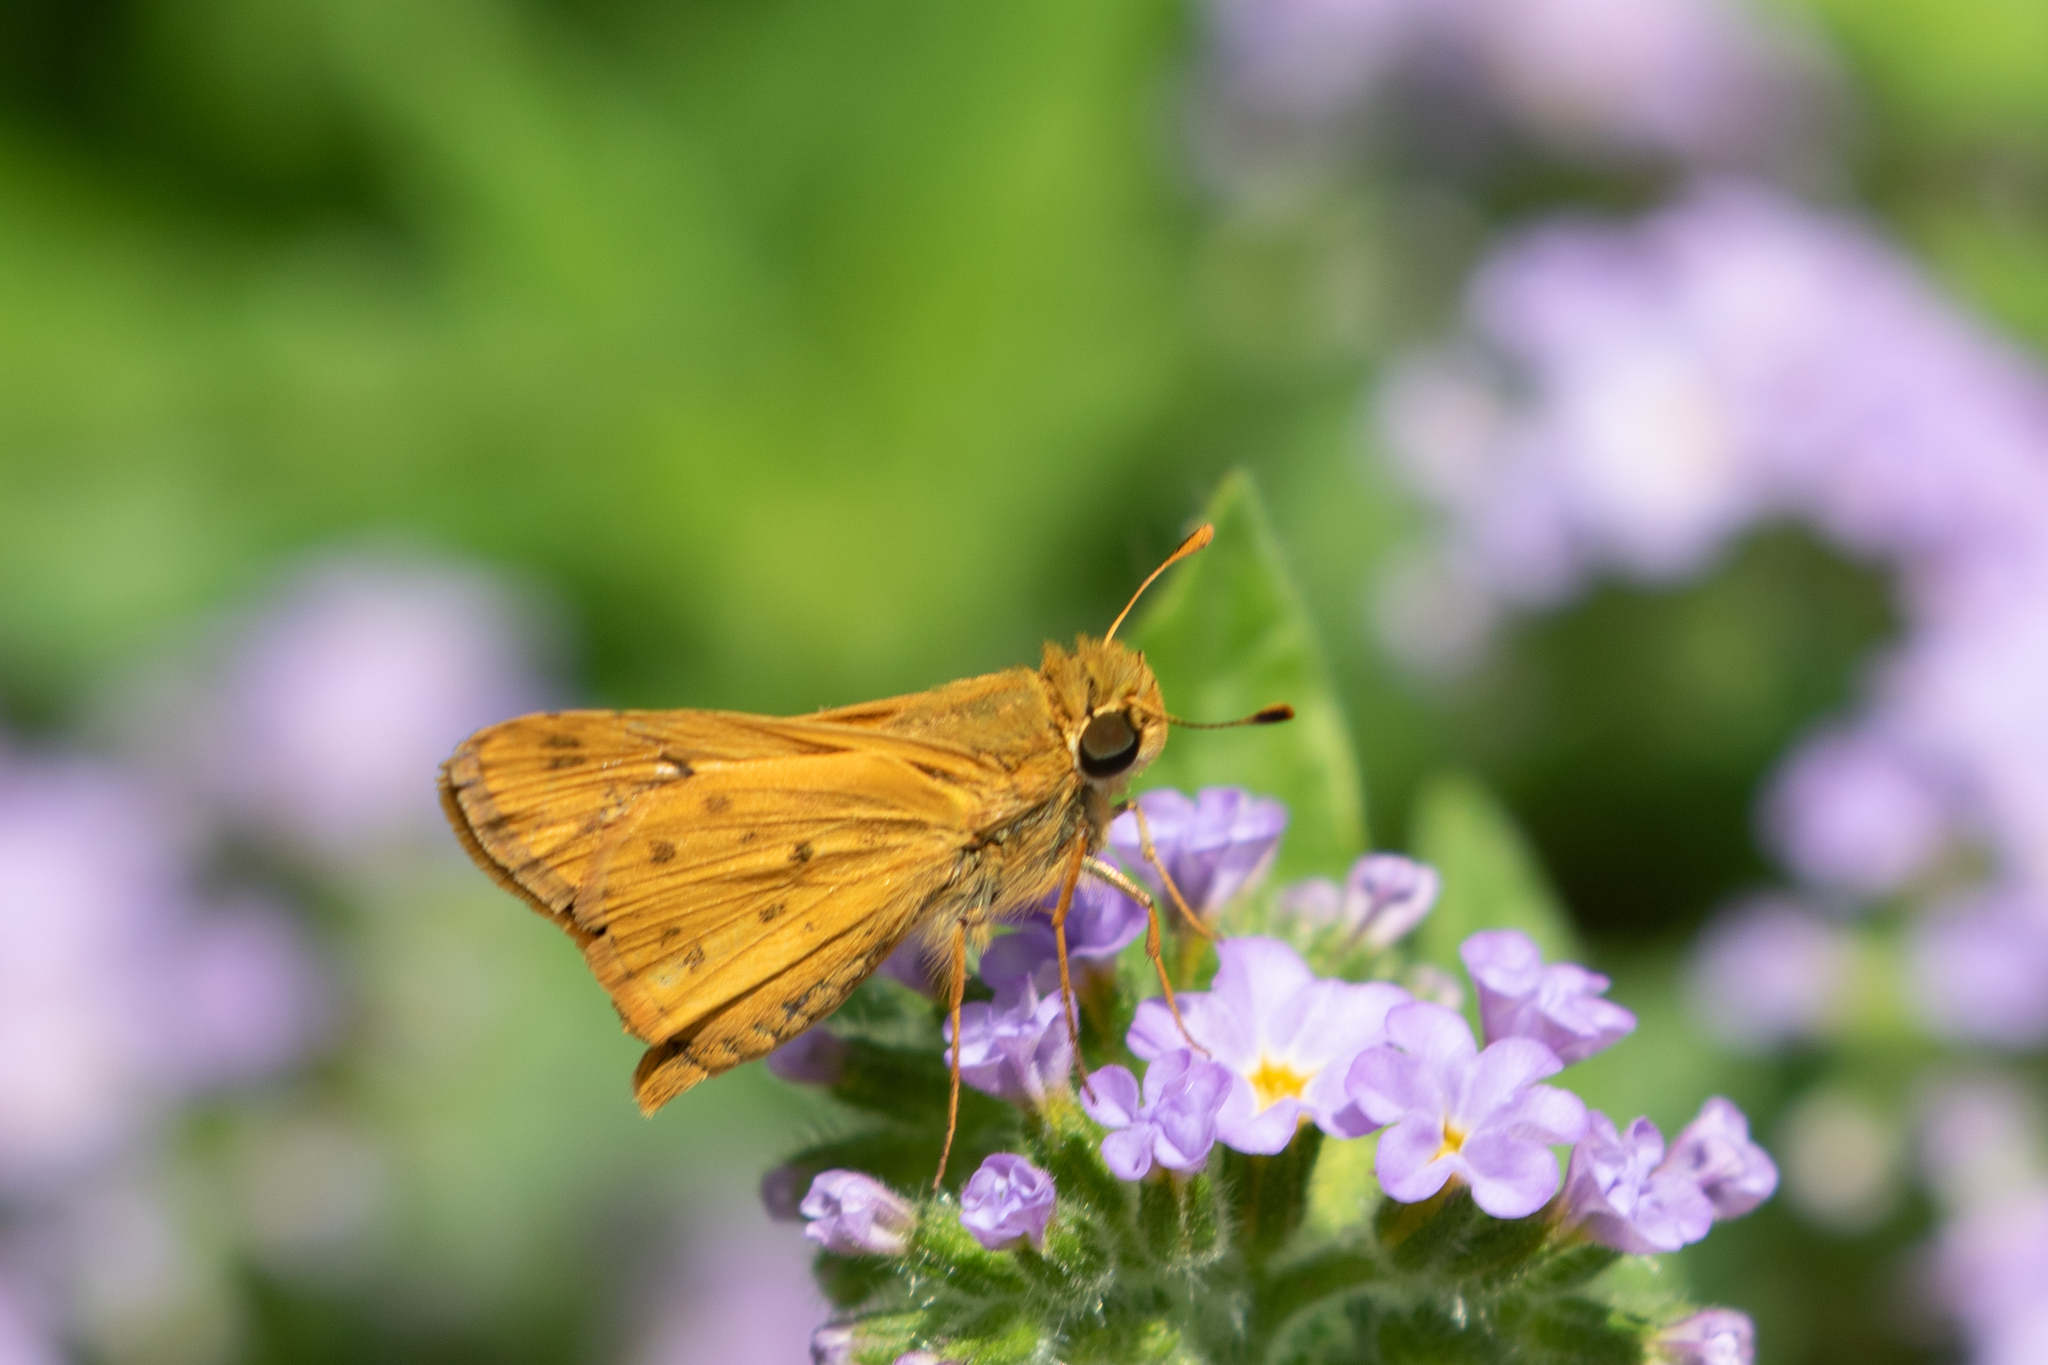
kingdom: Animalia
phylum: Arthropoda
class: Insecta
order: Lepidoptera
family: Hesperiidae
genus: Hylephila
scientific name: Hylephila phyleus
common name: Fiery skipper
